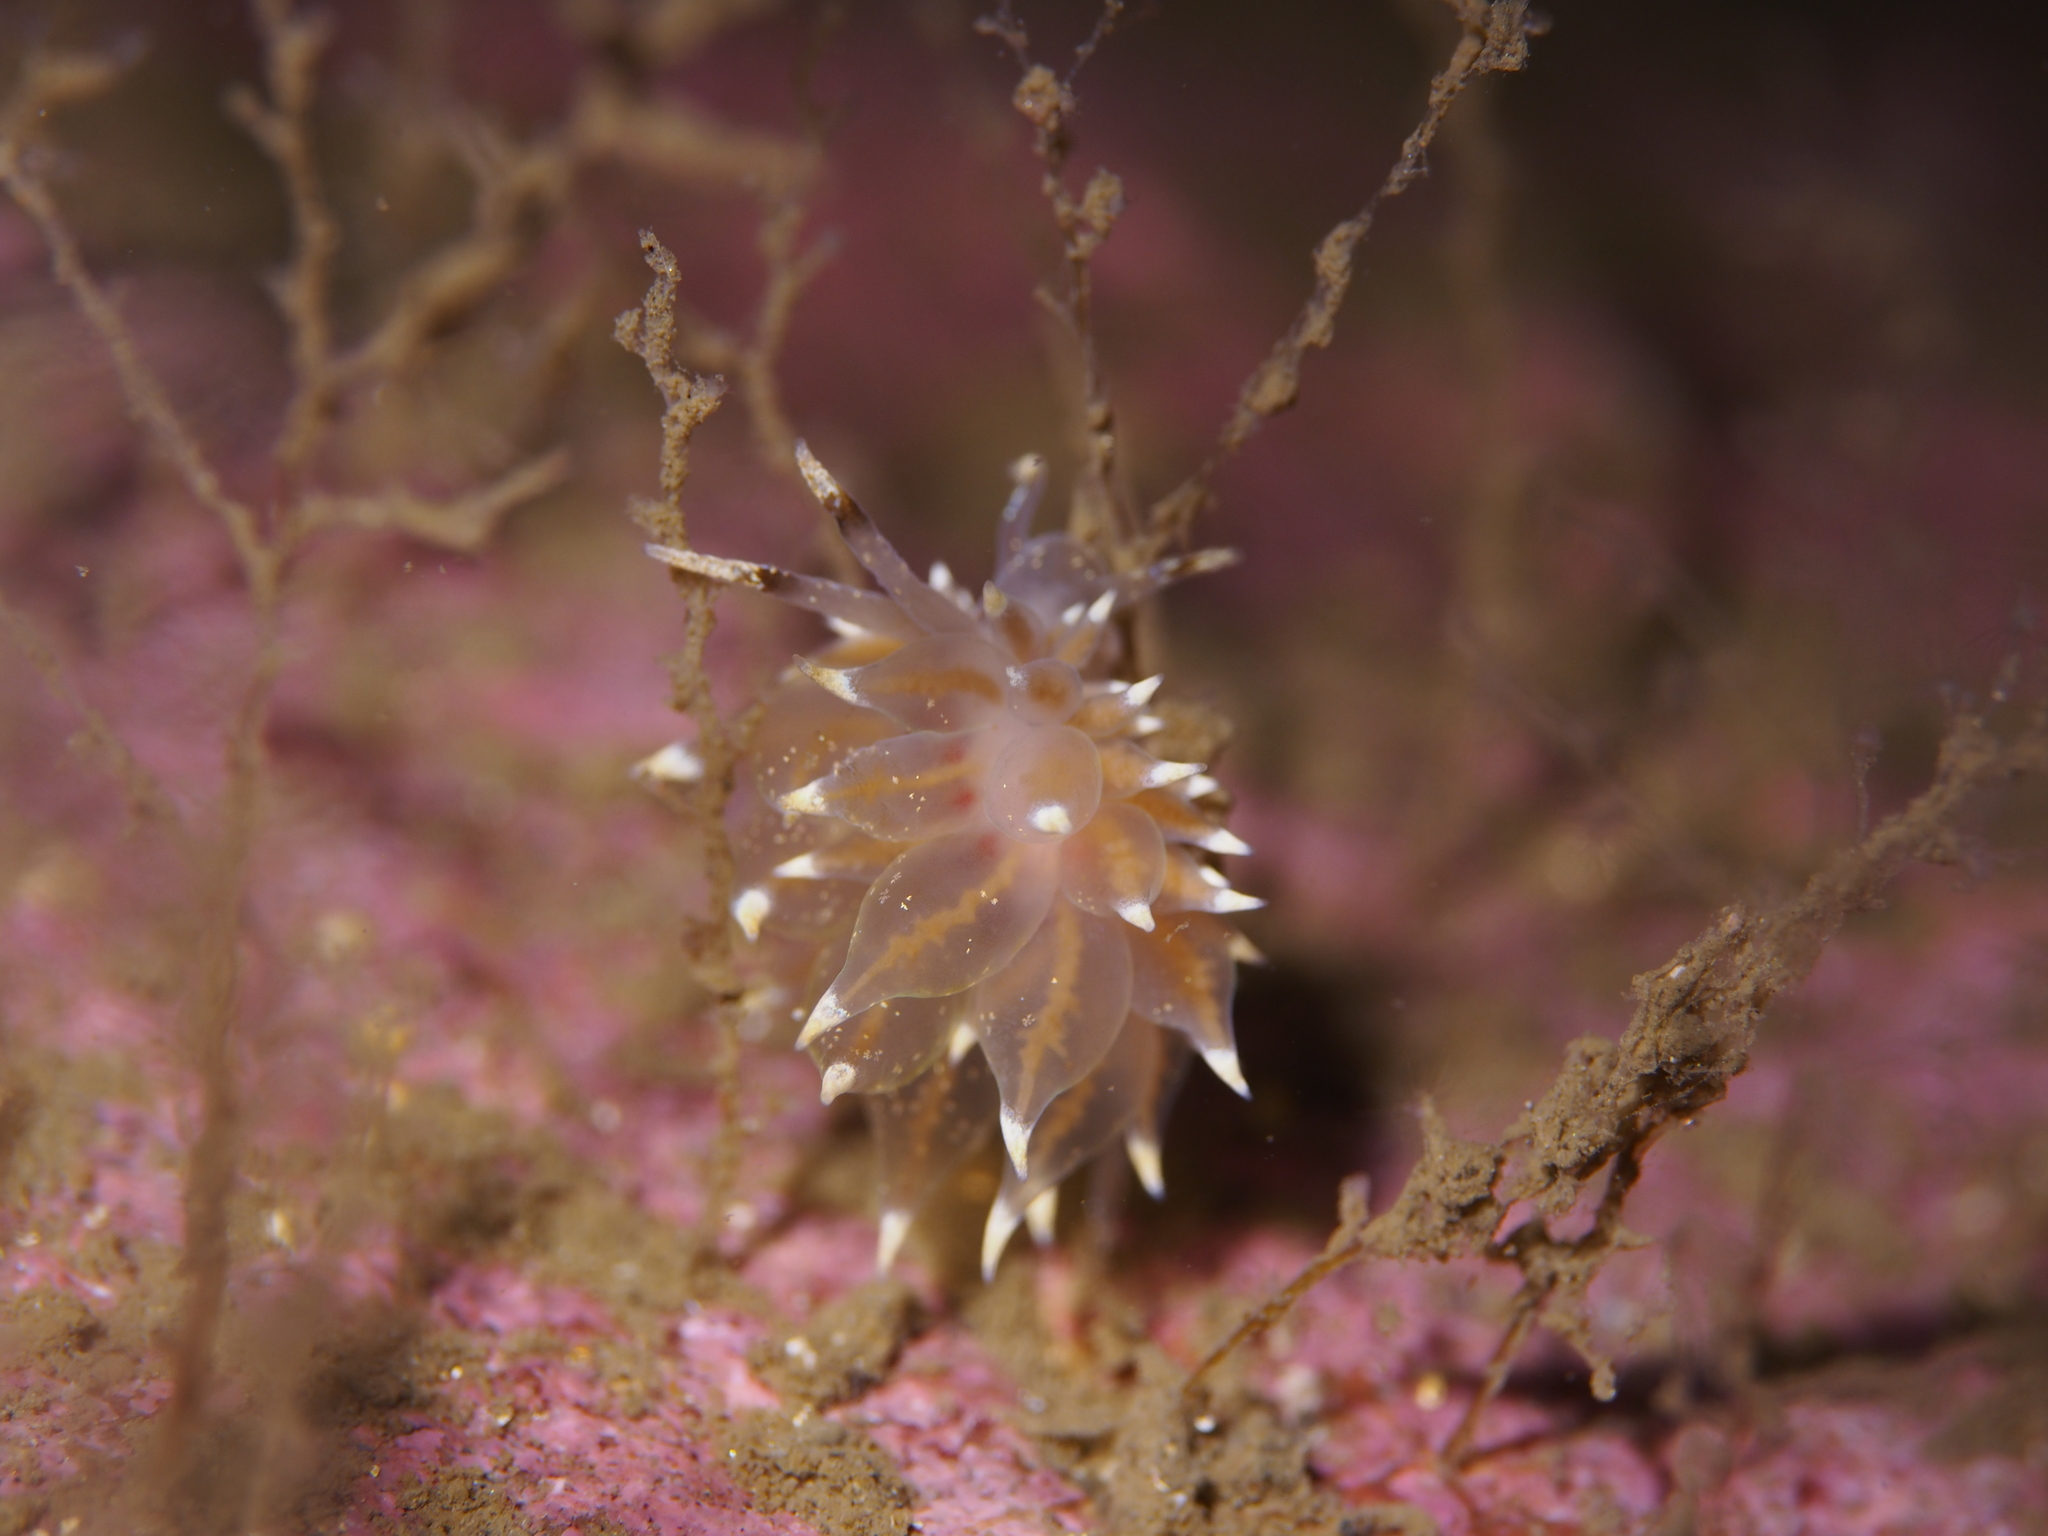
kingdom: Animalia
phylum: Mollusca
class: Gastropoda
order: Nudibranchia
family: Eubranchidae
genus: Amphorina
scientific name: Amphorina linensis
